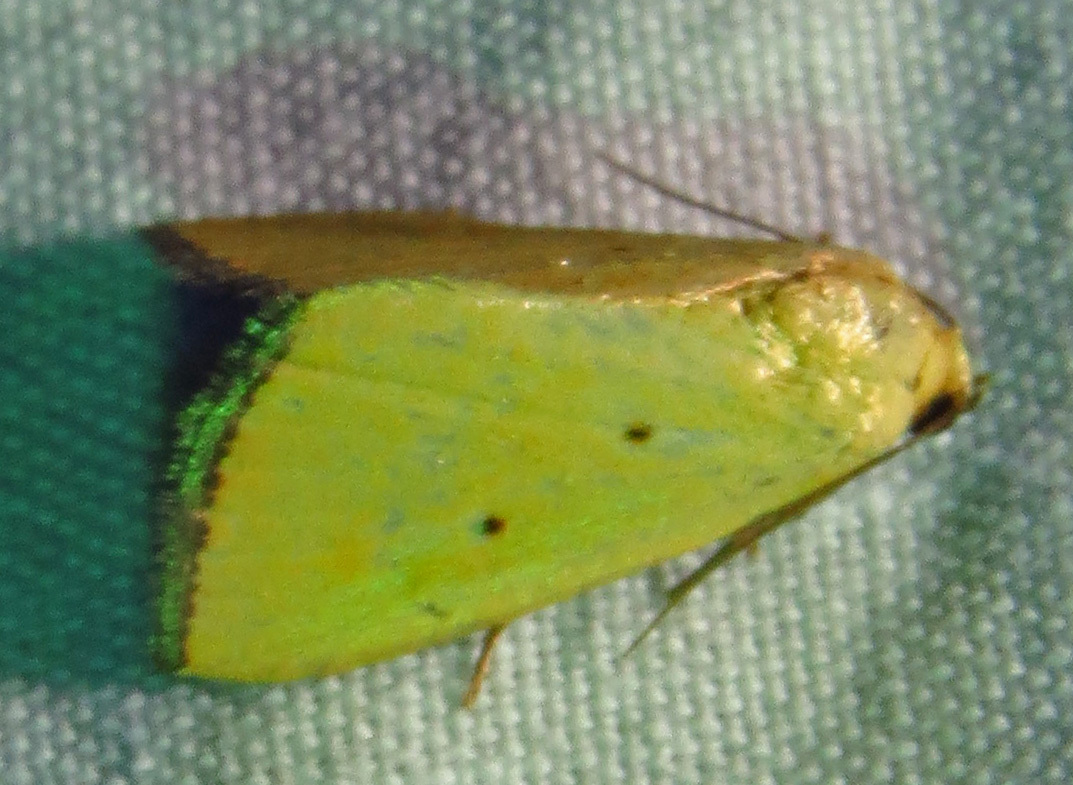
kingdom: Animalia
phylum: Arthropoda
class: Insecta
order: Lepidoptera
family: Noctuidae
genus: Marimatha
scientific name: Marimatha nigrofimbria
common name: Black-bordered lemon moth
